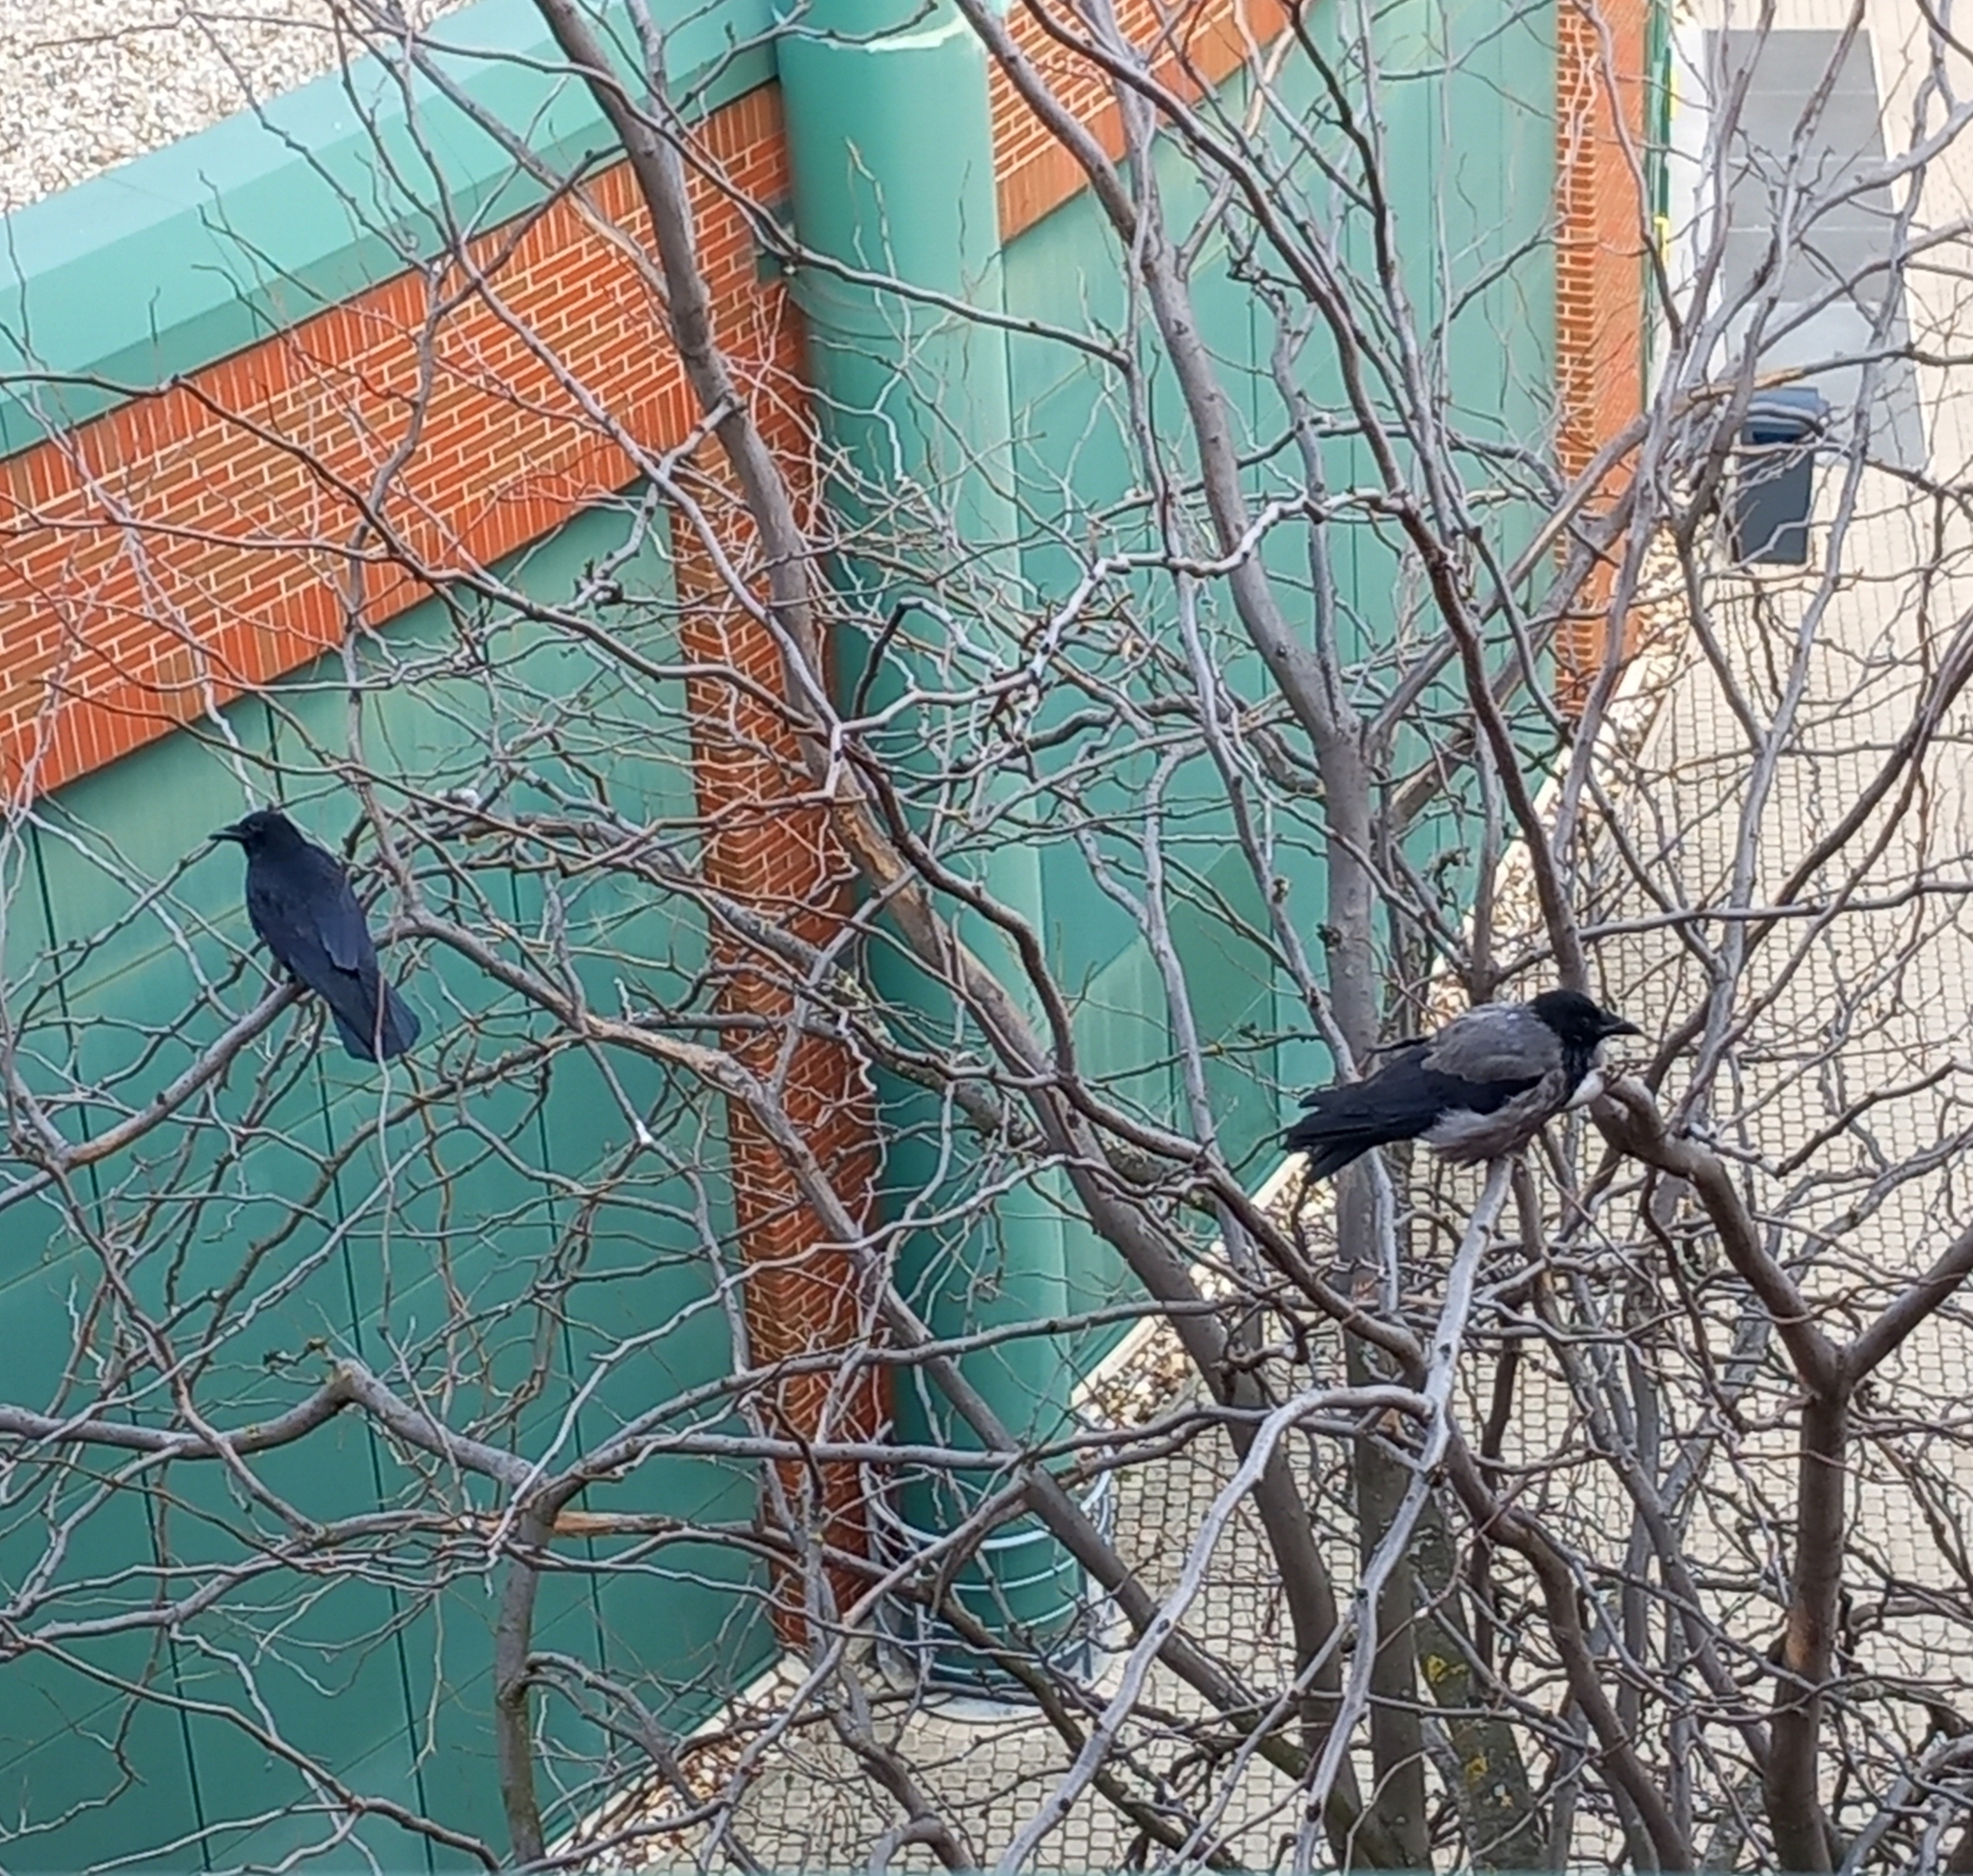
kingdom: Animalia
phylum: Chordata
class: Aves
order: Passeriformes
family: Corvidae
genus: Corvus
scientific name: Corvus
